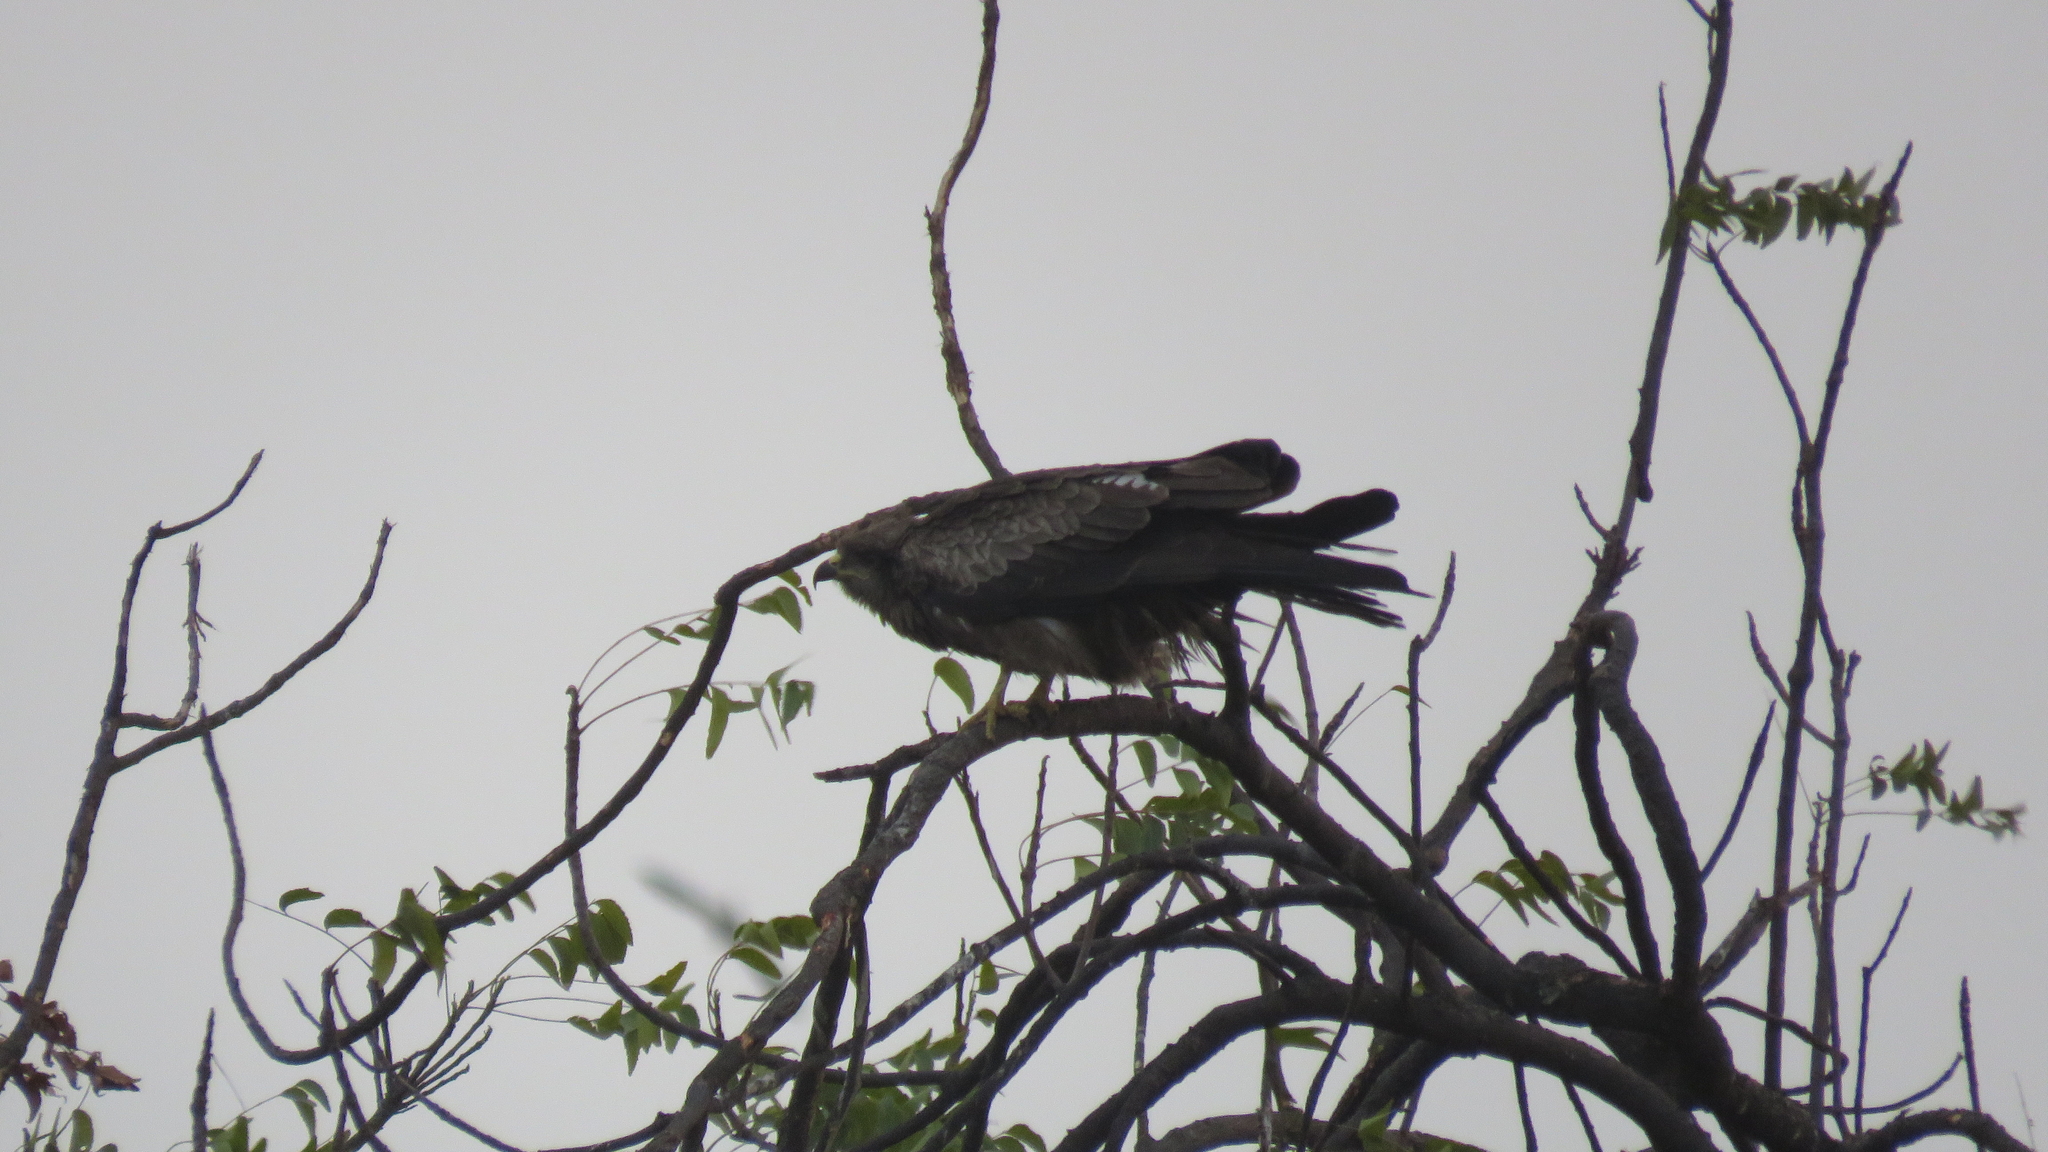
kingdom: Animalia
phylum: Chordata
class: Aves
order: Accipitriformes
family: Accipitridae
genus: Milvus
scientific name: Milvus migrans
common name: Black kite
